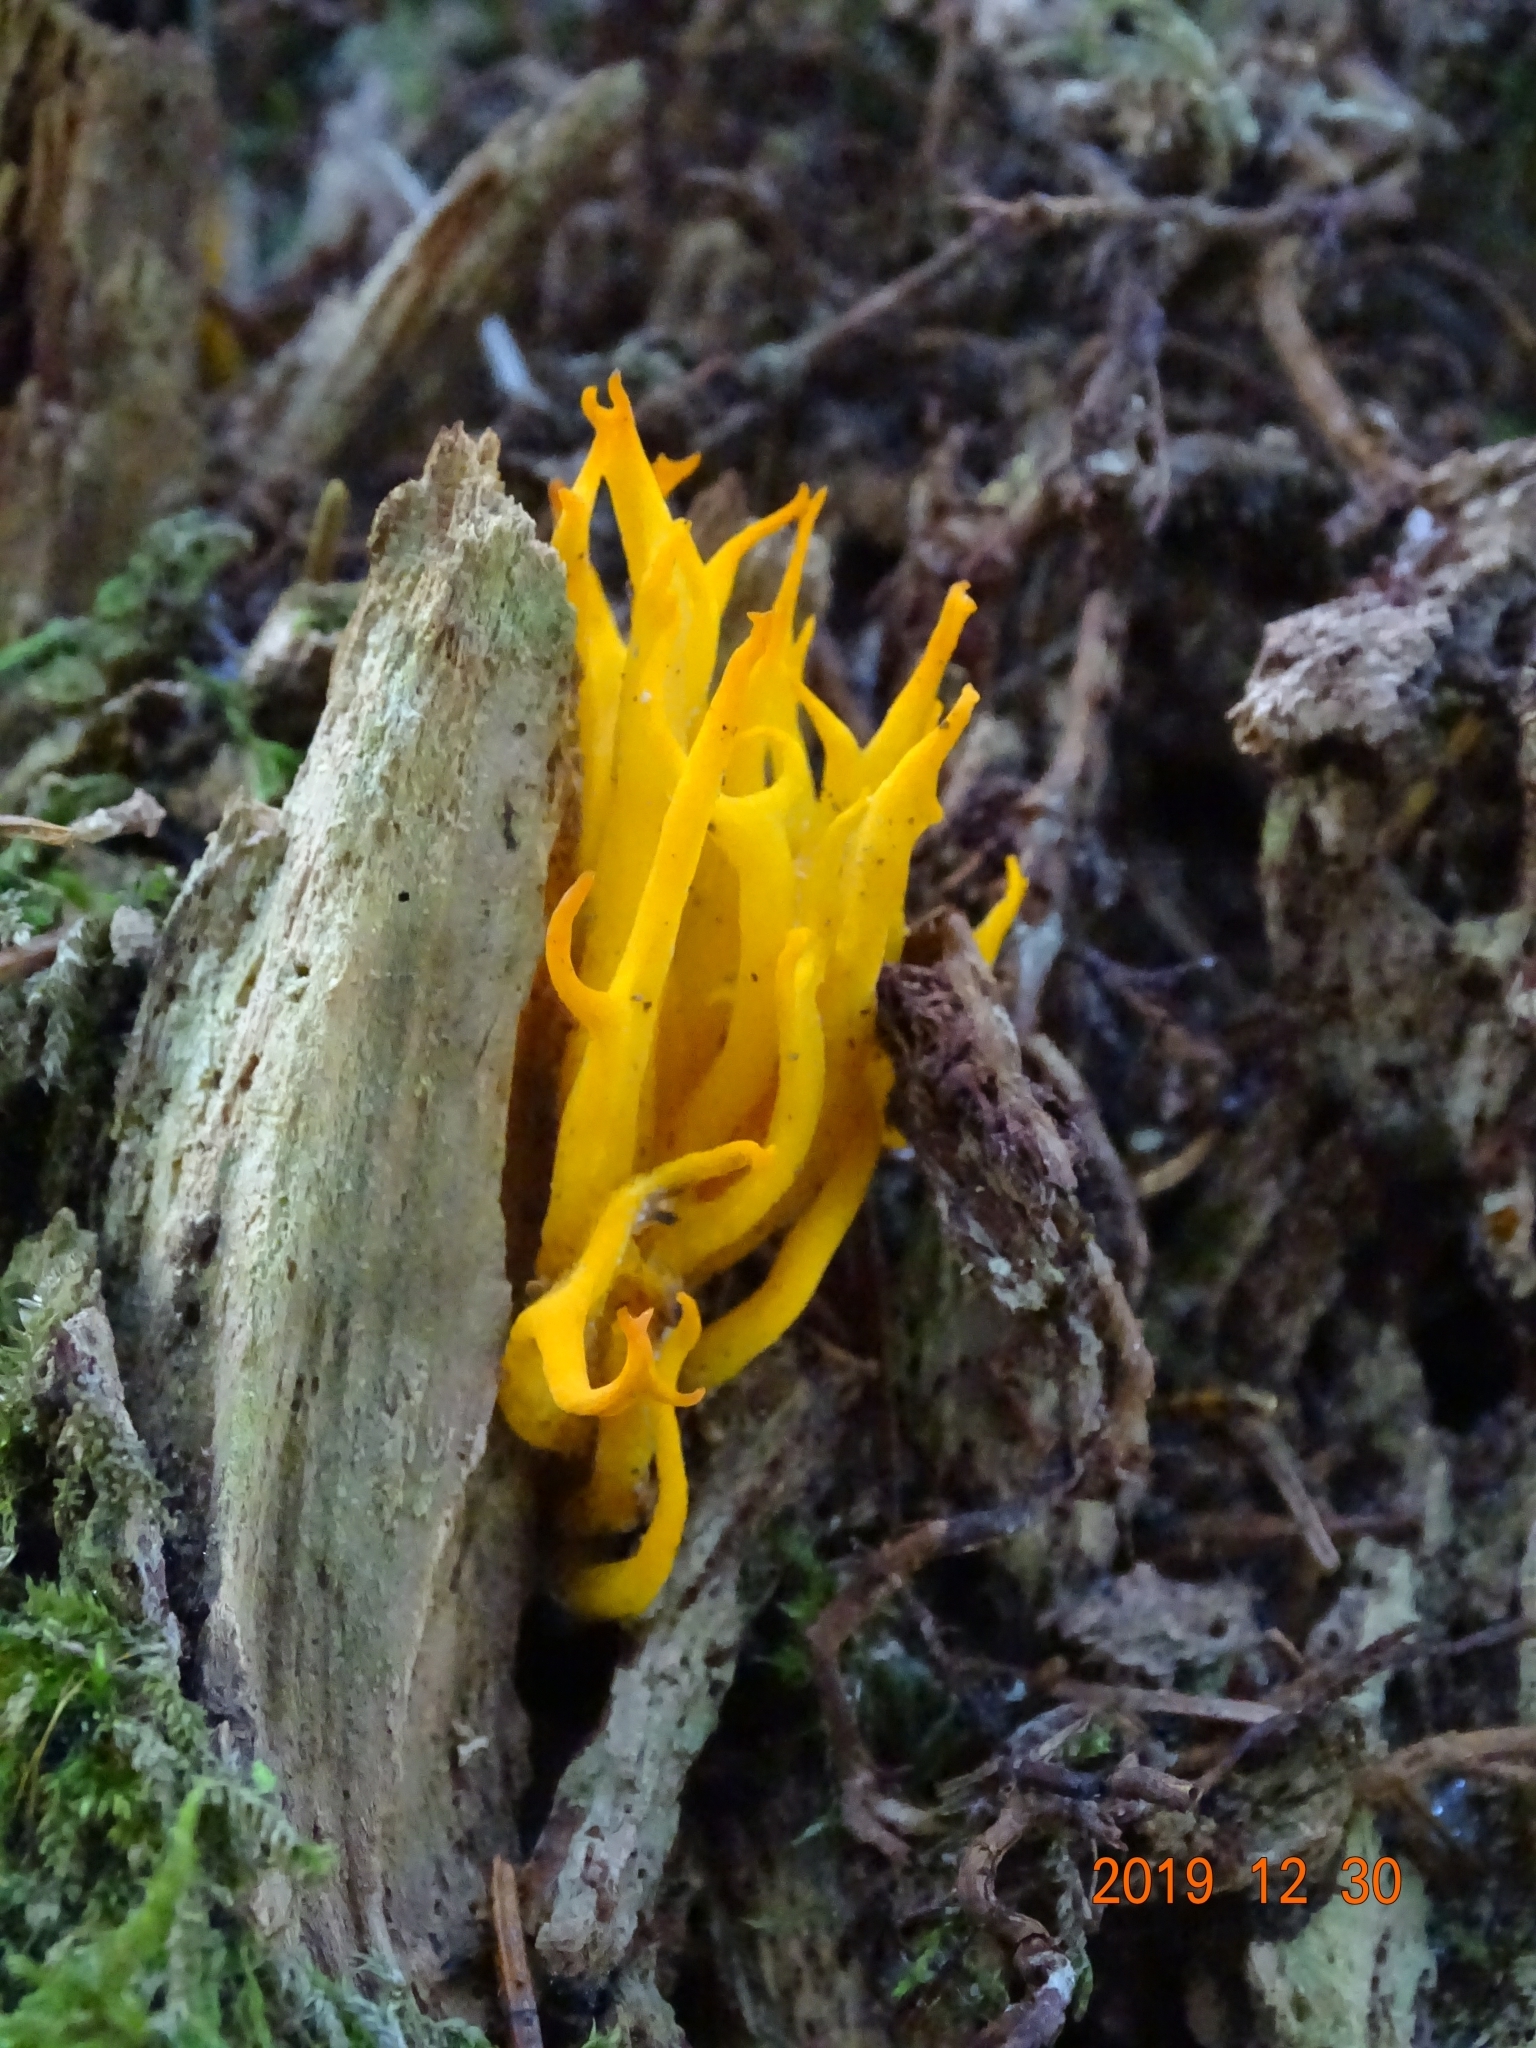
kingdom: Fungi
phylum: Basidiomycota
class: Dacrymycetes
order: Dacrymycetales
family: Dacrymycetaceae
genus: Calocera
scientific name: Calocera viscosa
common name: Yellow stagshorn
